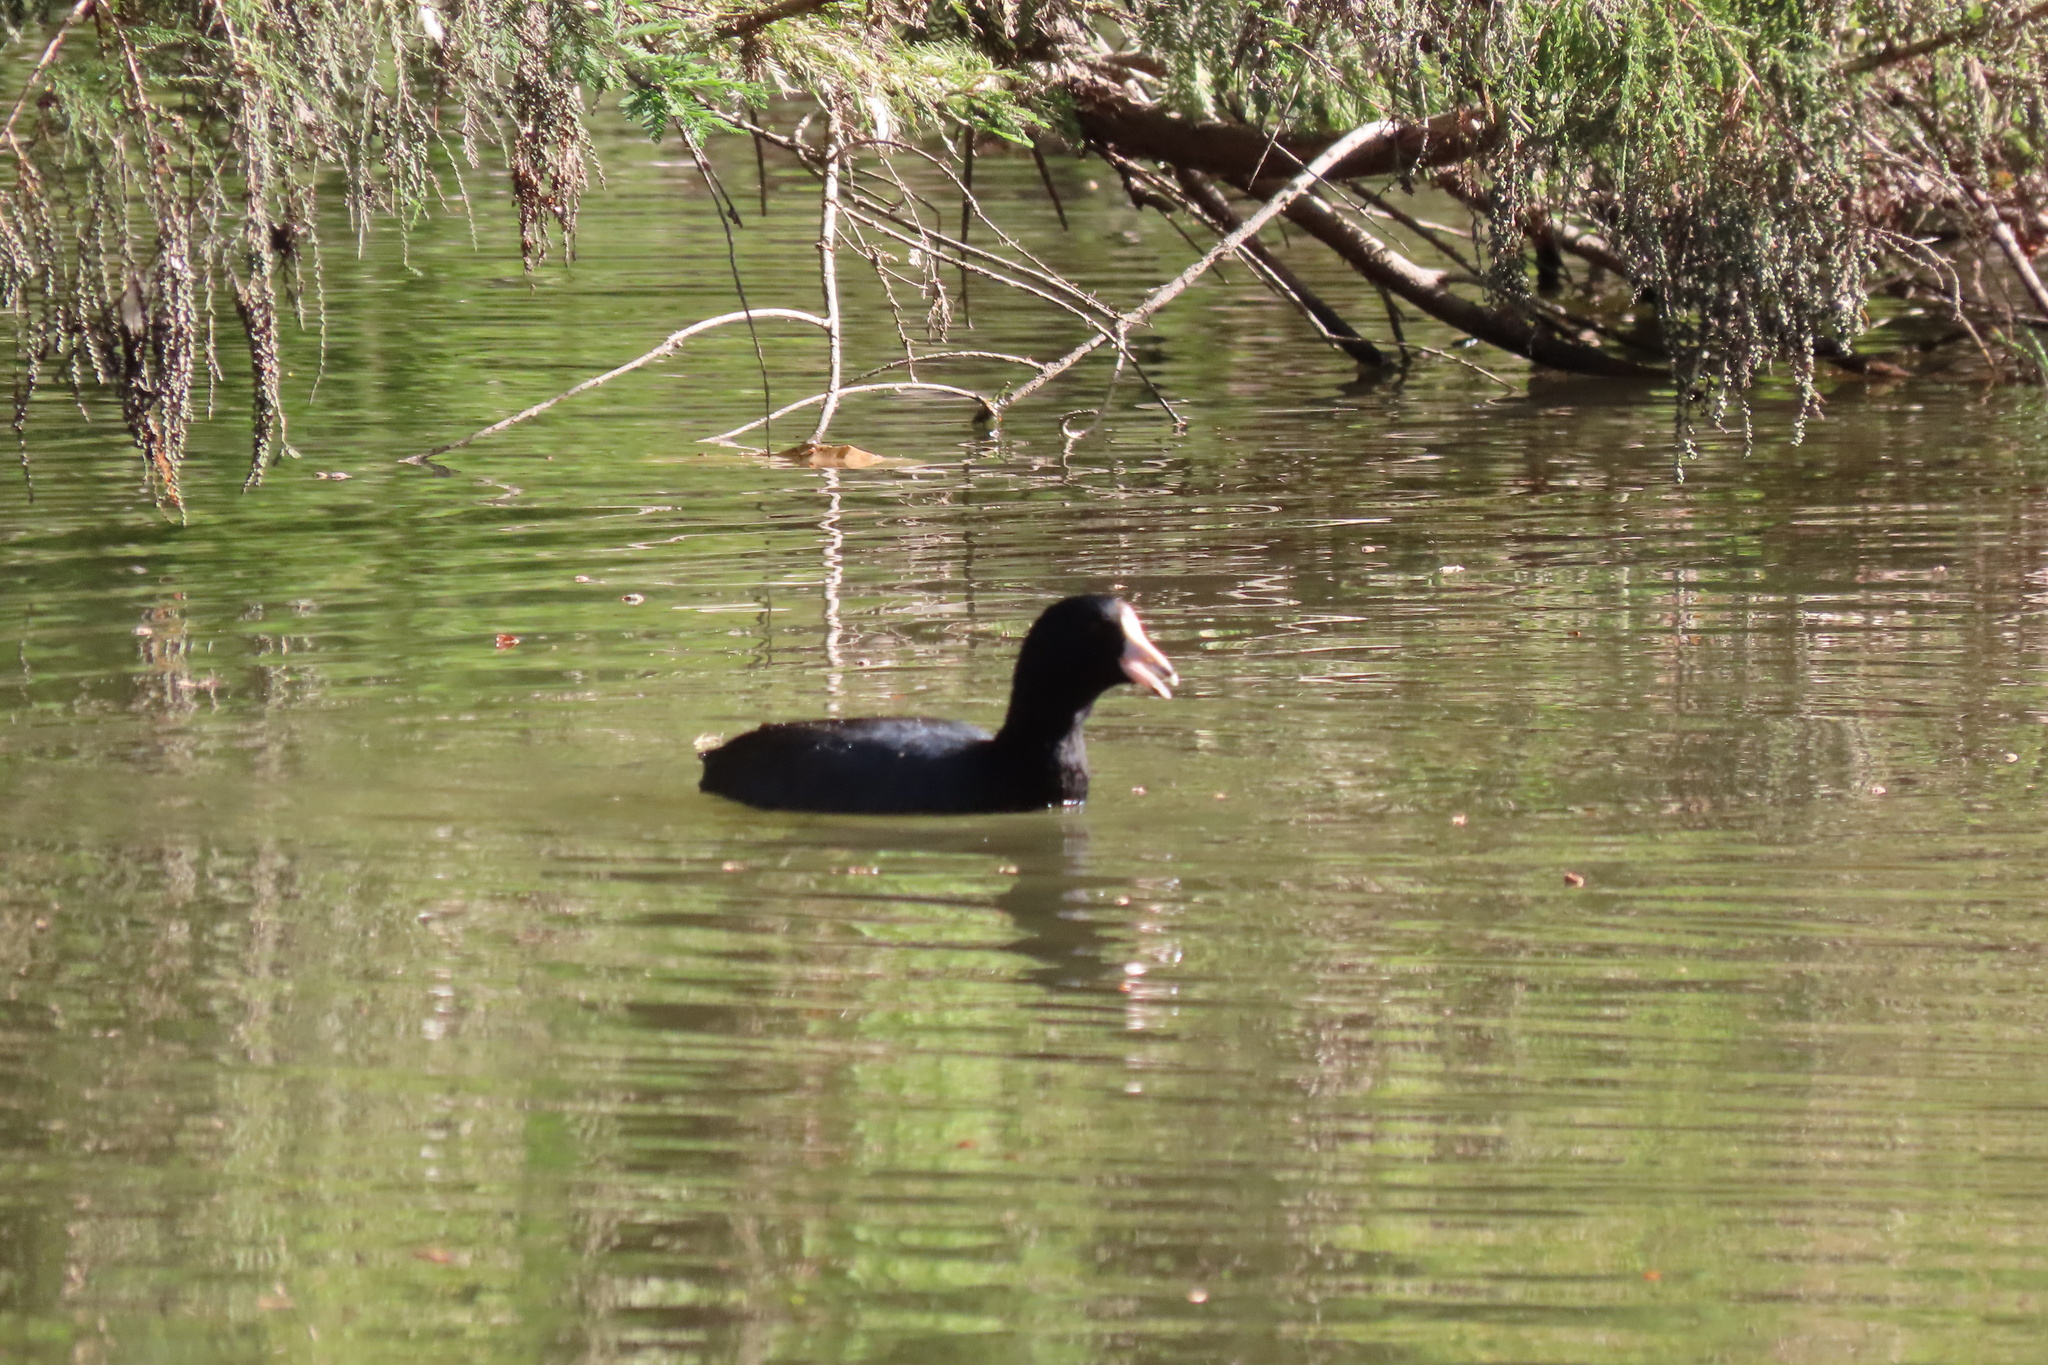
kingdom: Animalia
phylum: Chordata
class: Aves
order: Gruiformes
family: Rallidae
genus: Fulica
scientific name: Fulica americana
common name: American coot
